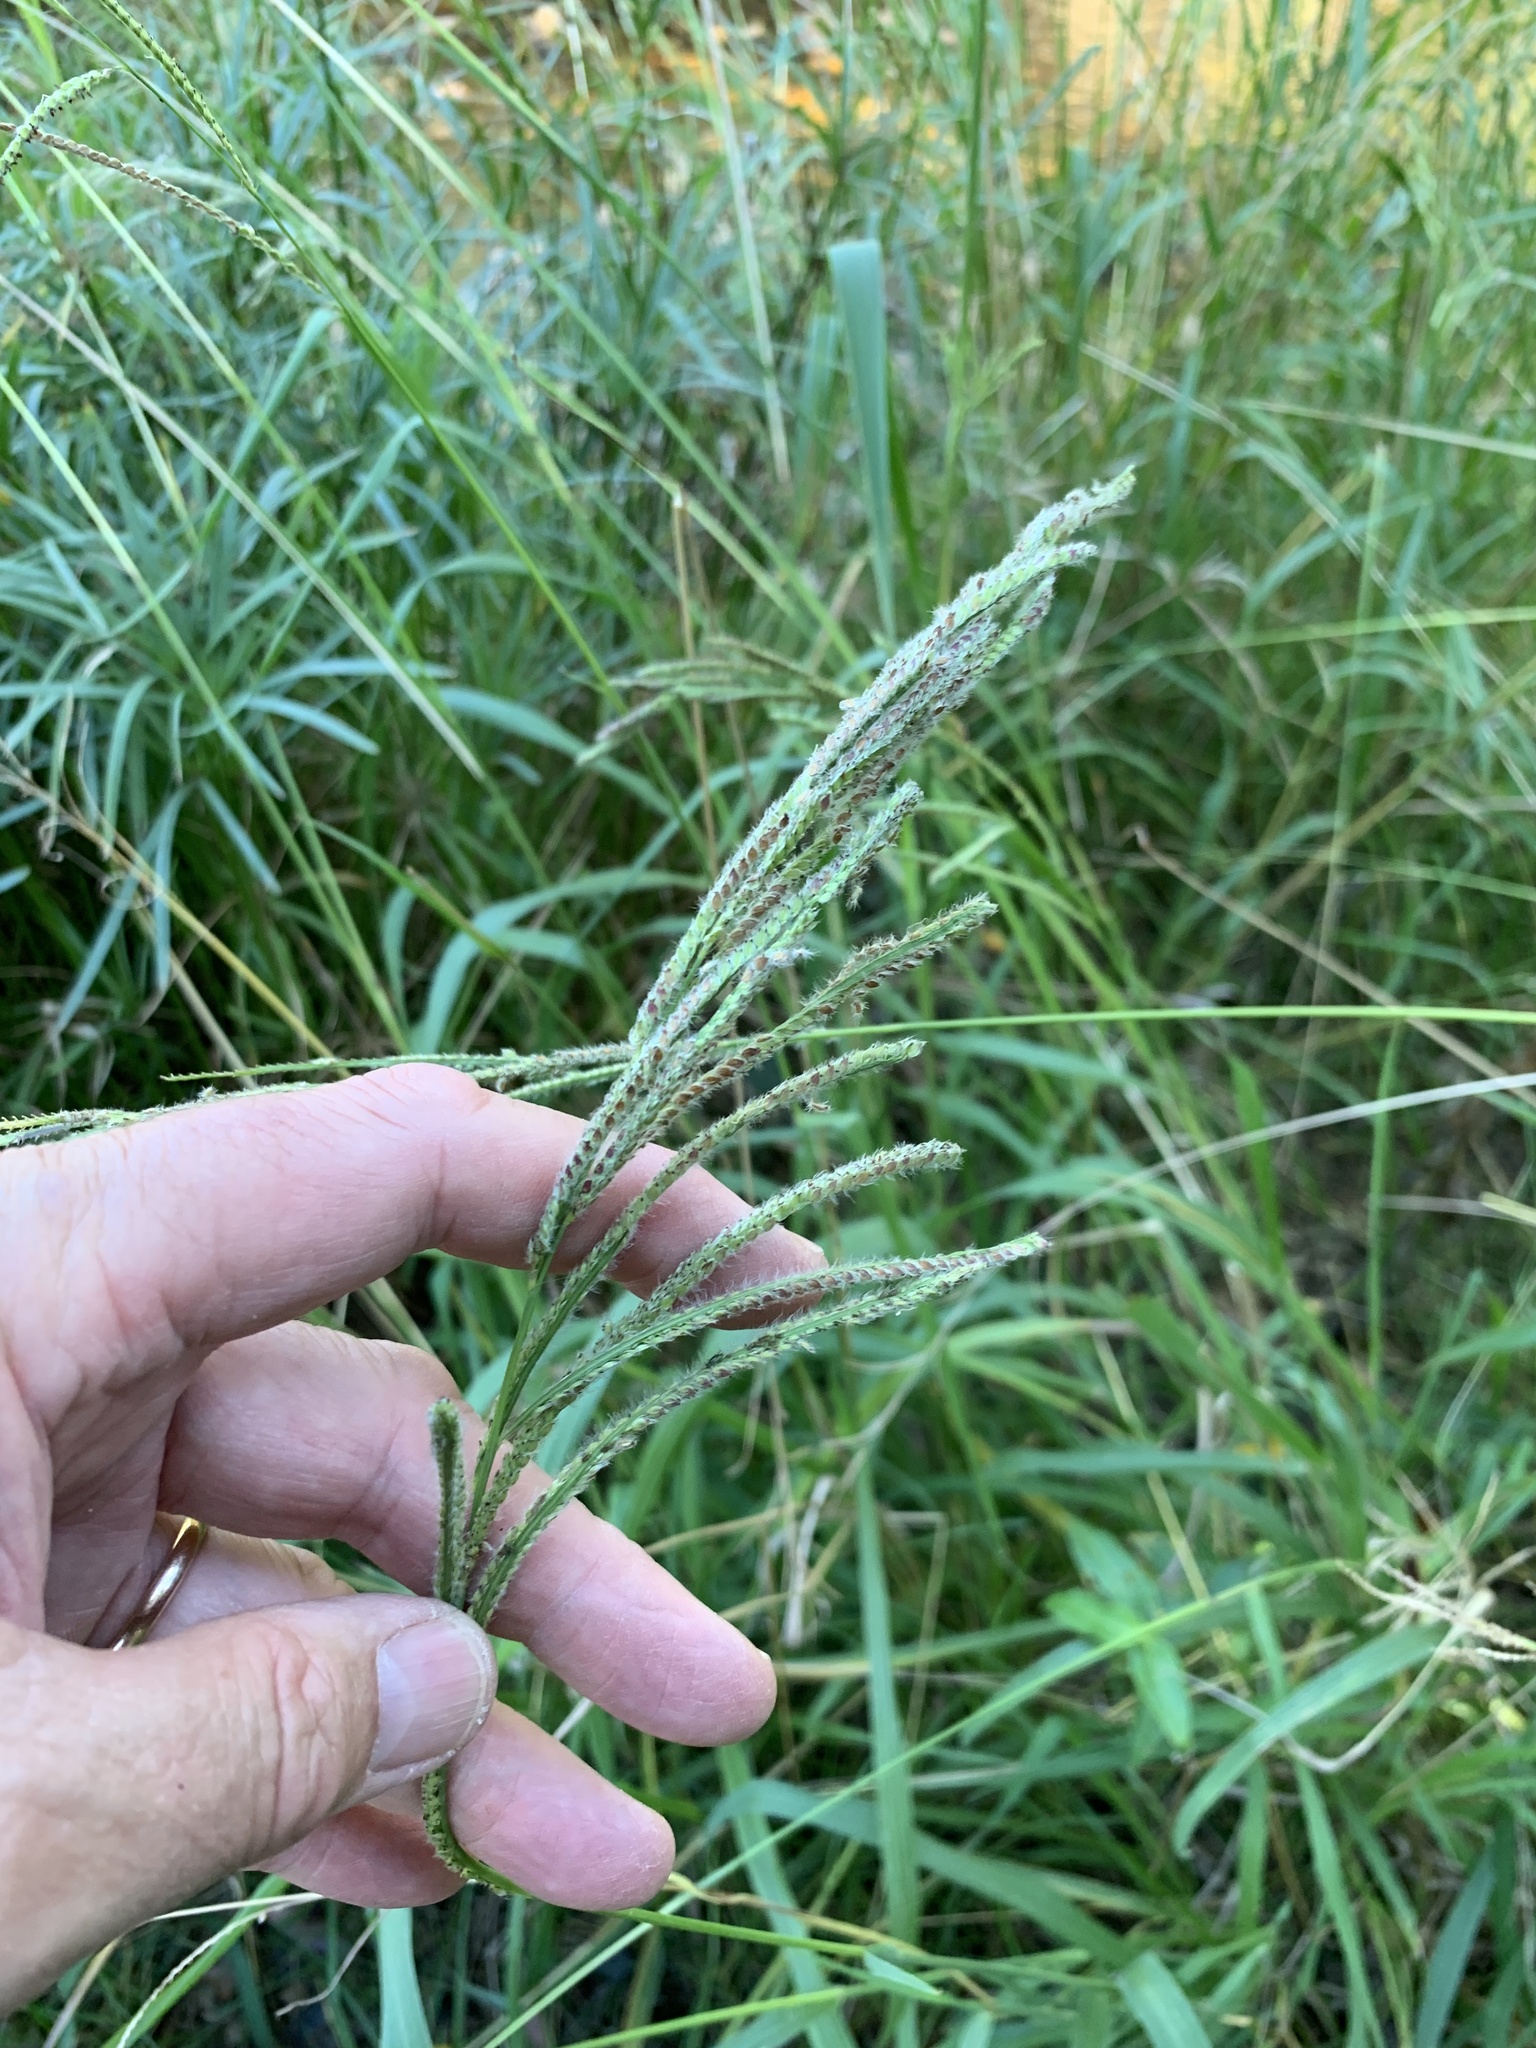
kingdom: Plantae
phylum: Tracheophyta
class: Liliopsida
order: Poales
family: Poaceae
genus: Paspalum
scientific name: Paspalum urvillei
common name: Vasey's grass
